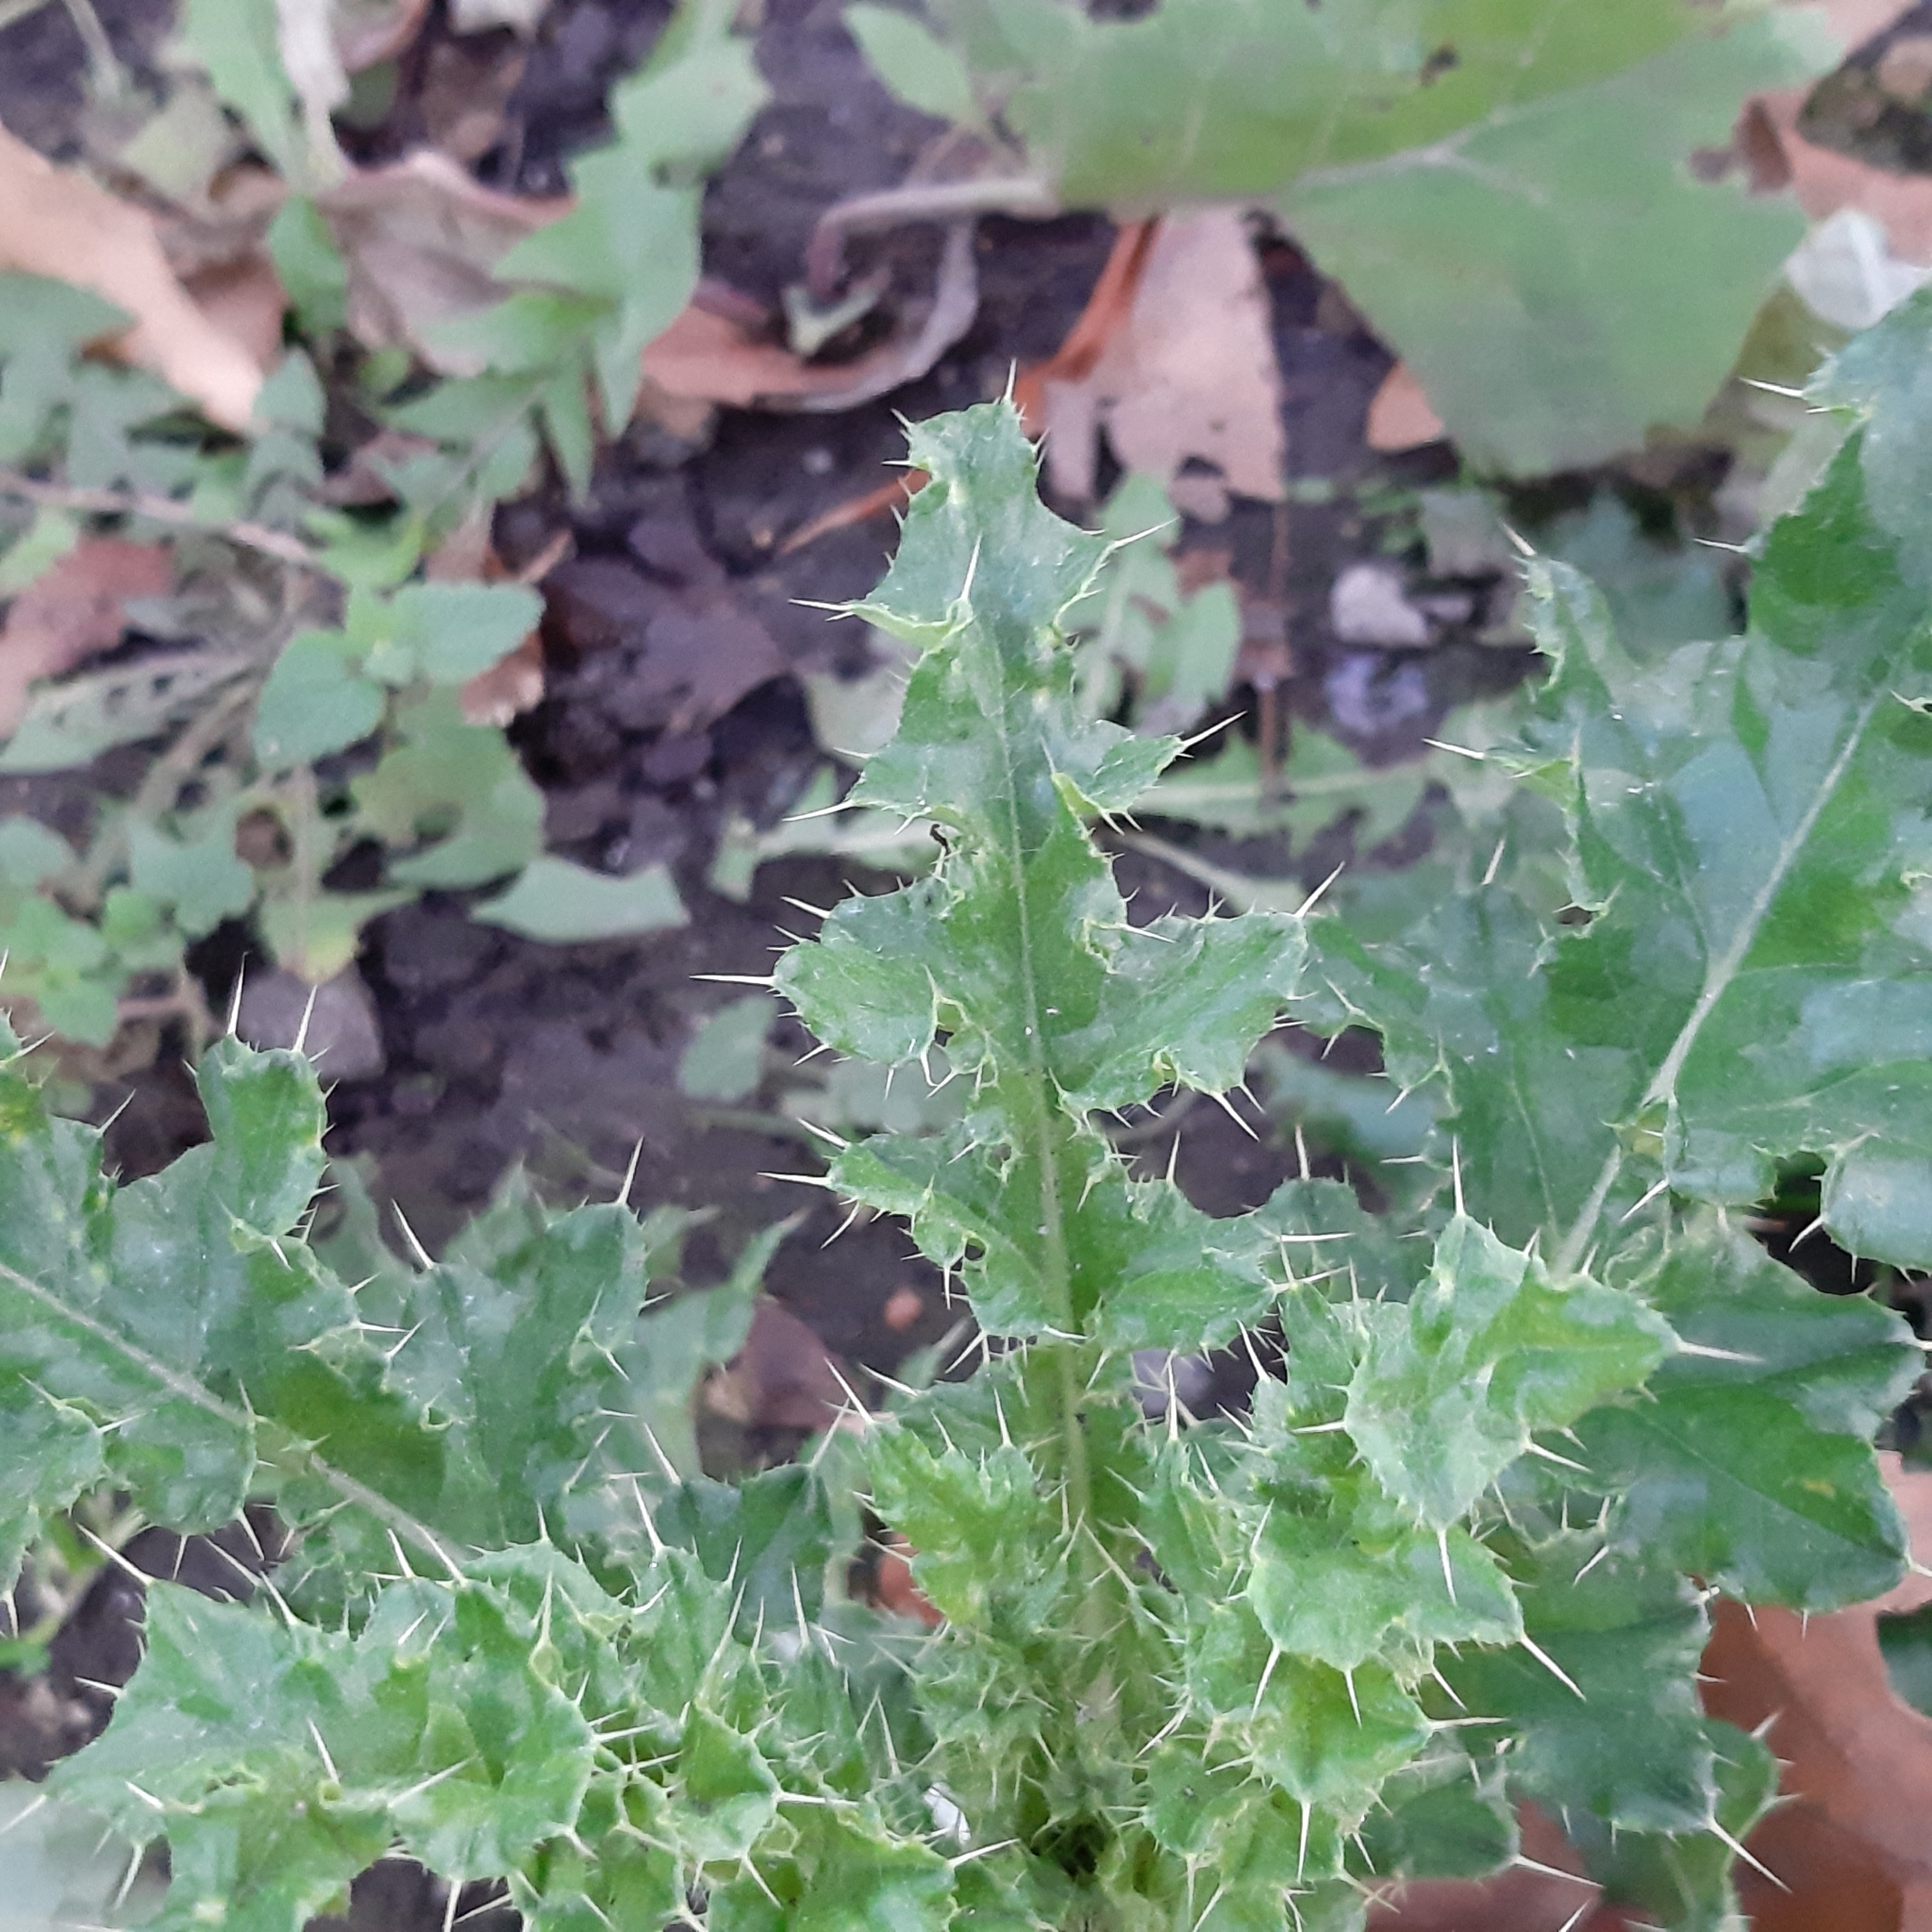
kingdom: Plantae
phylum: Tracheophyta
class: Magnoliopsida
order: Asterales
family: Asteraceae
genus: Cirsium
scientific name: Cirsium arvense
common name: Creeping thistle
